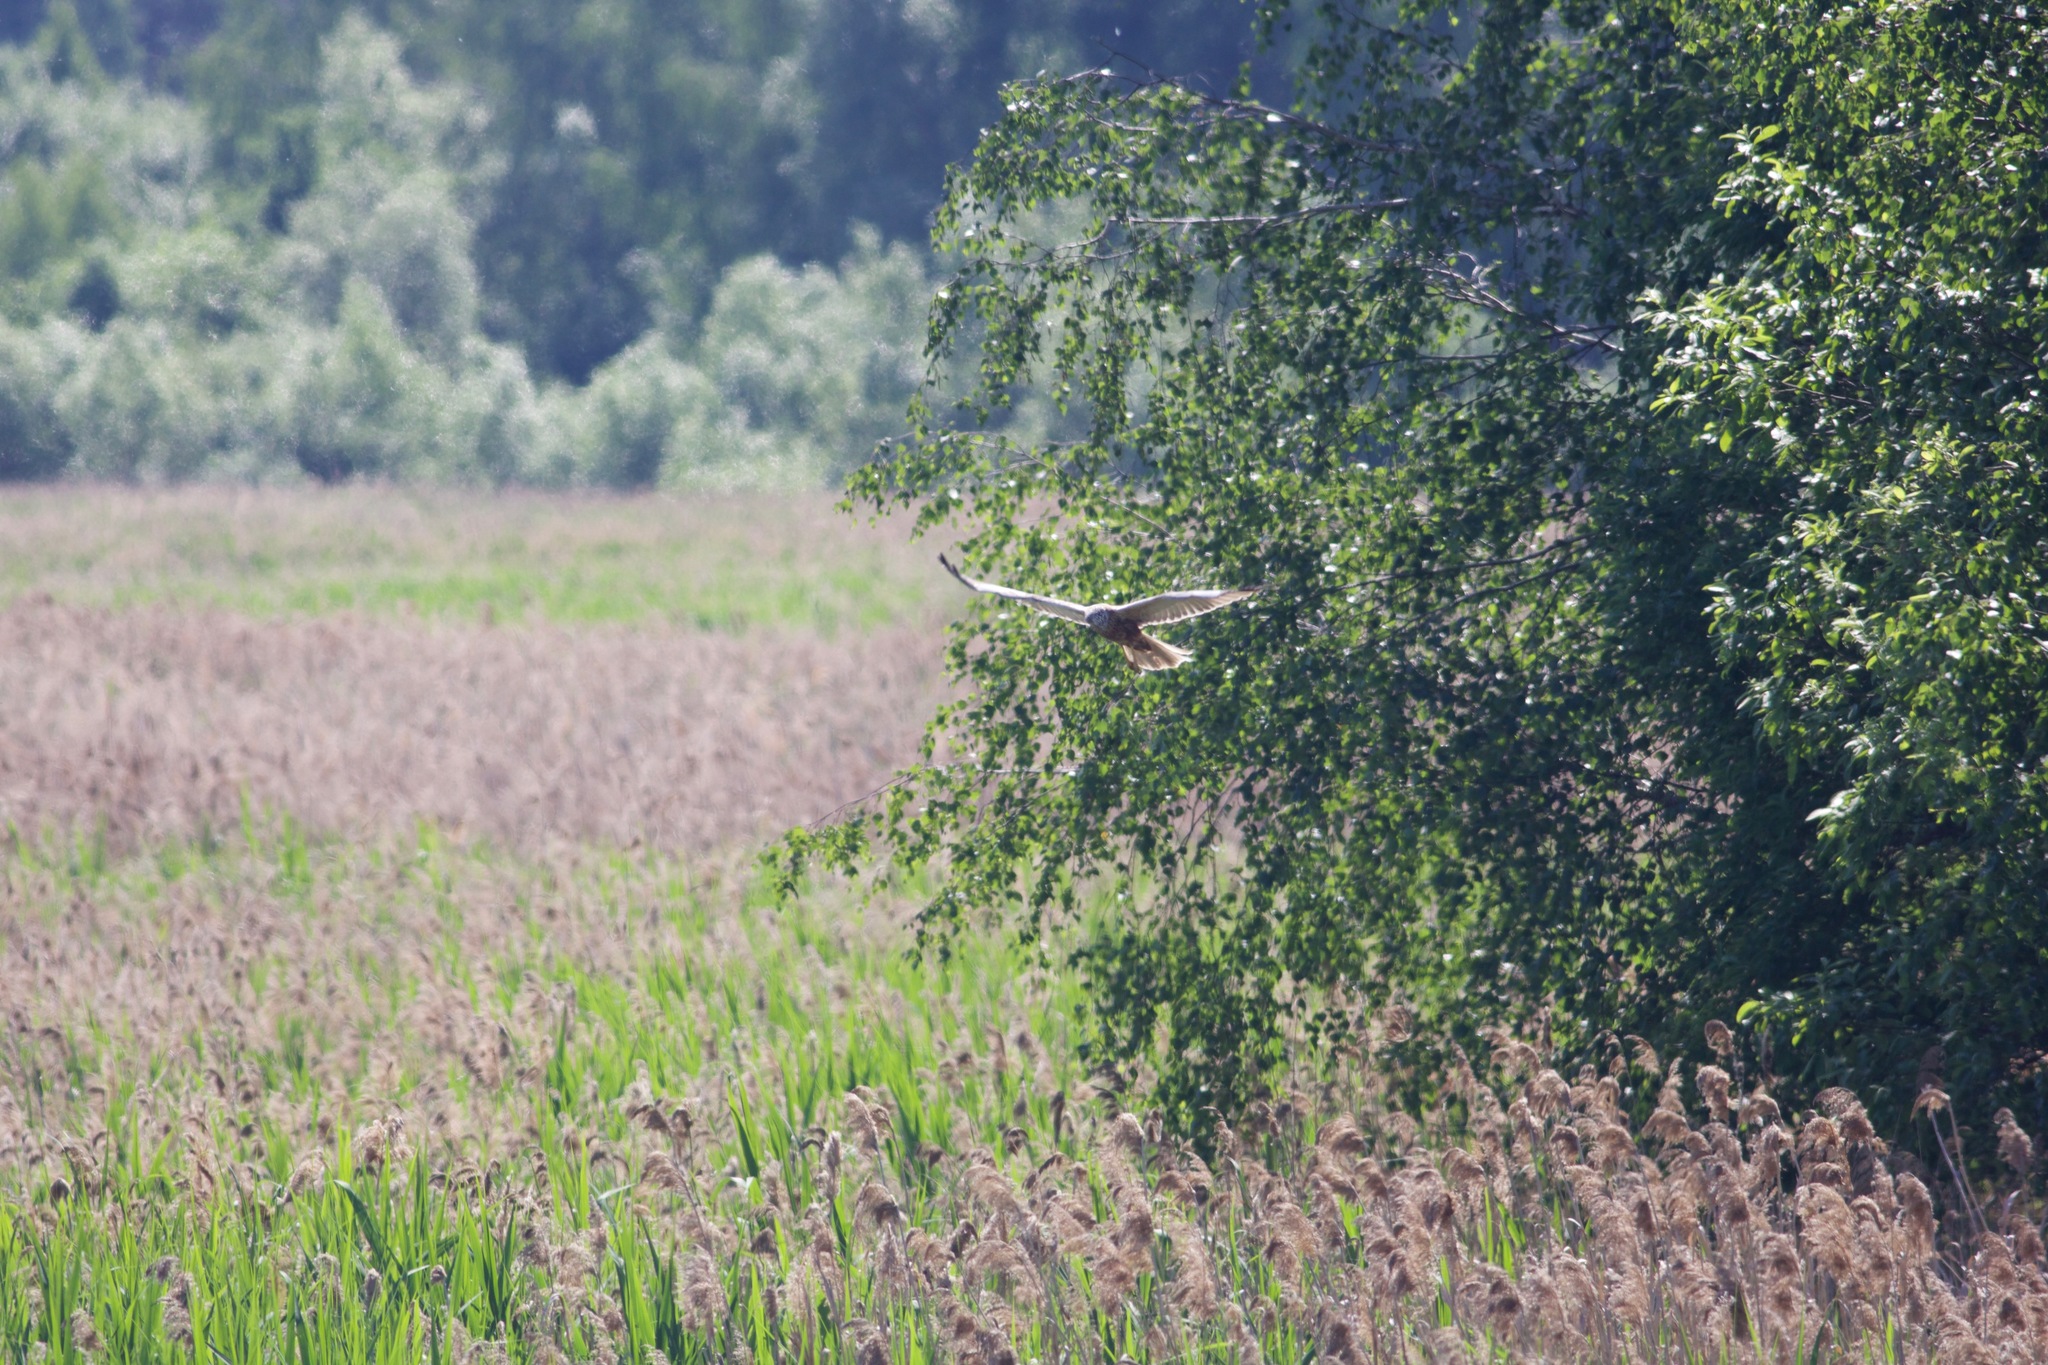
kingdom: Animalia
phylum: Chordata
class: Aves
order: Accipitriformes
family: Accipitridae
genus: Circus
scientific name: Circus aeruginosus
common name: Western marsh harrier
